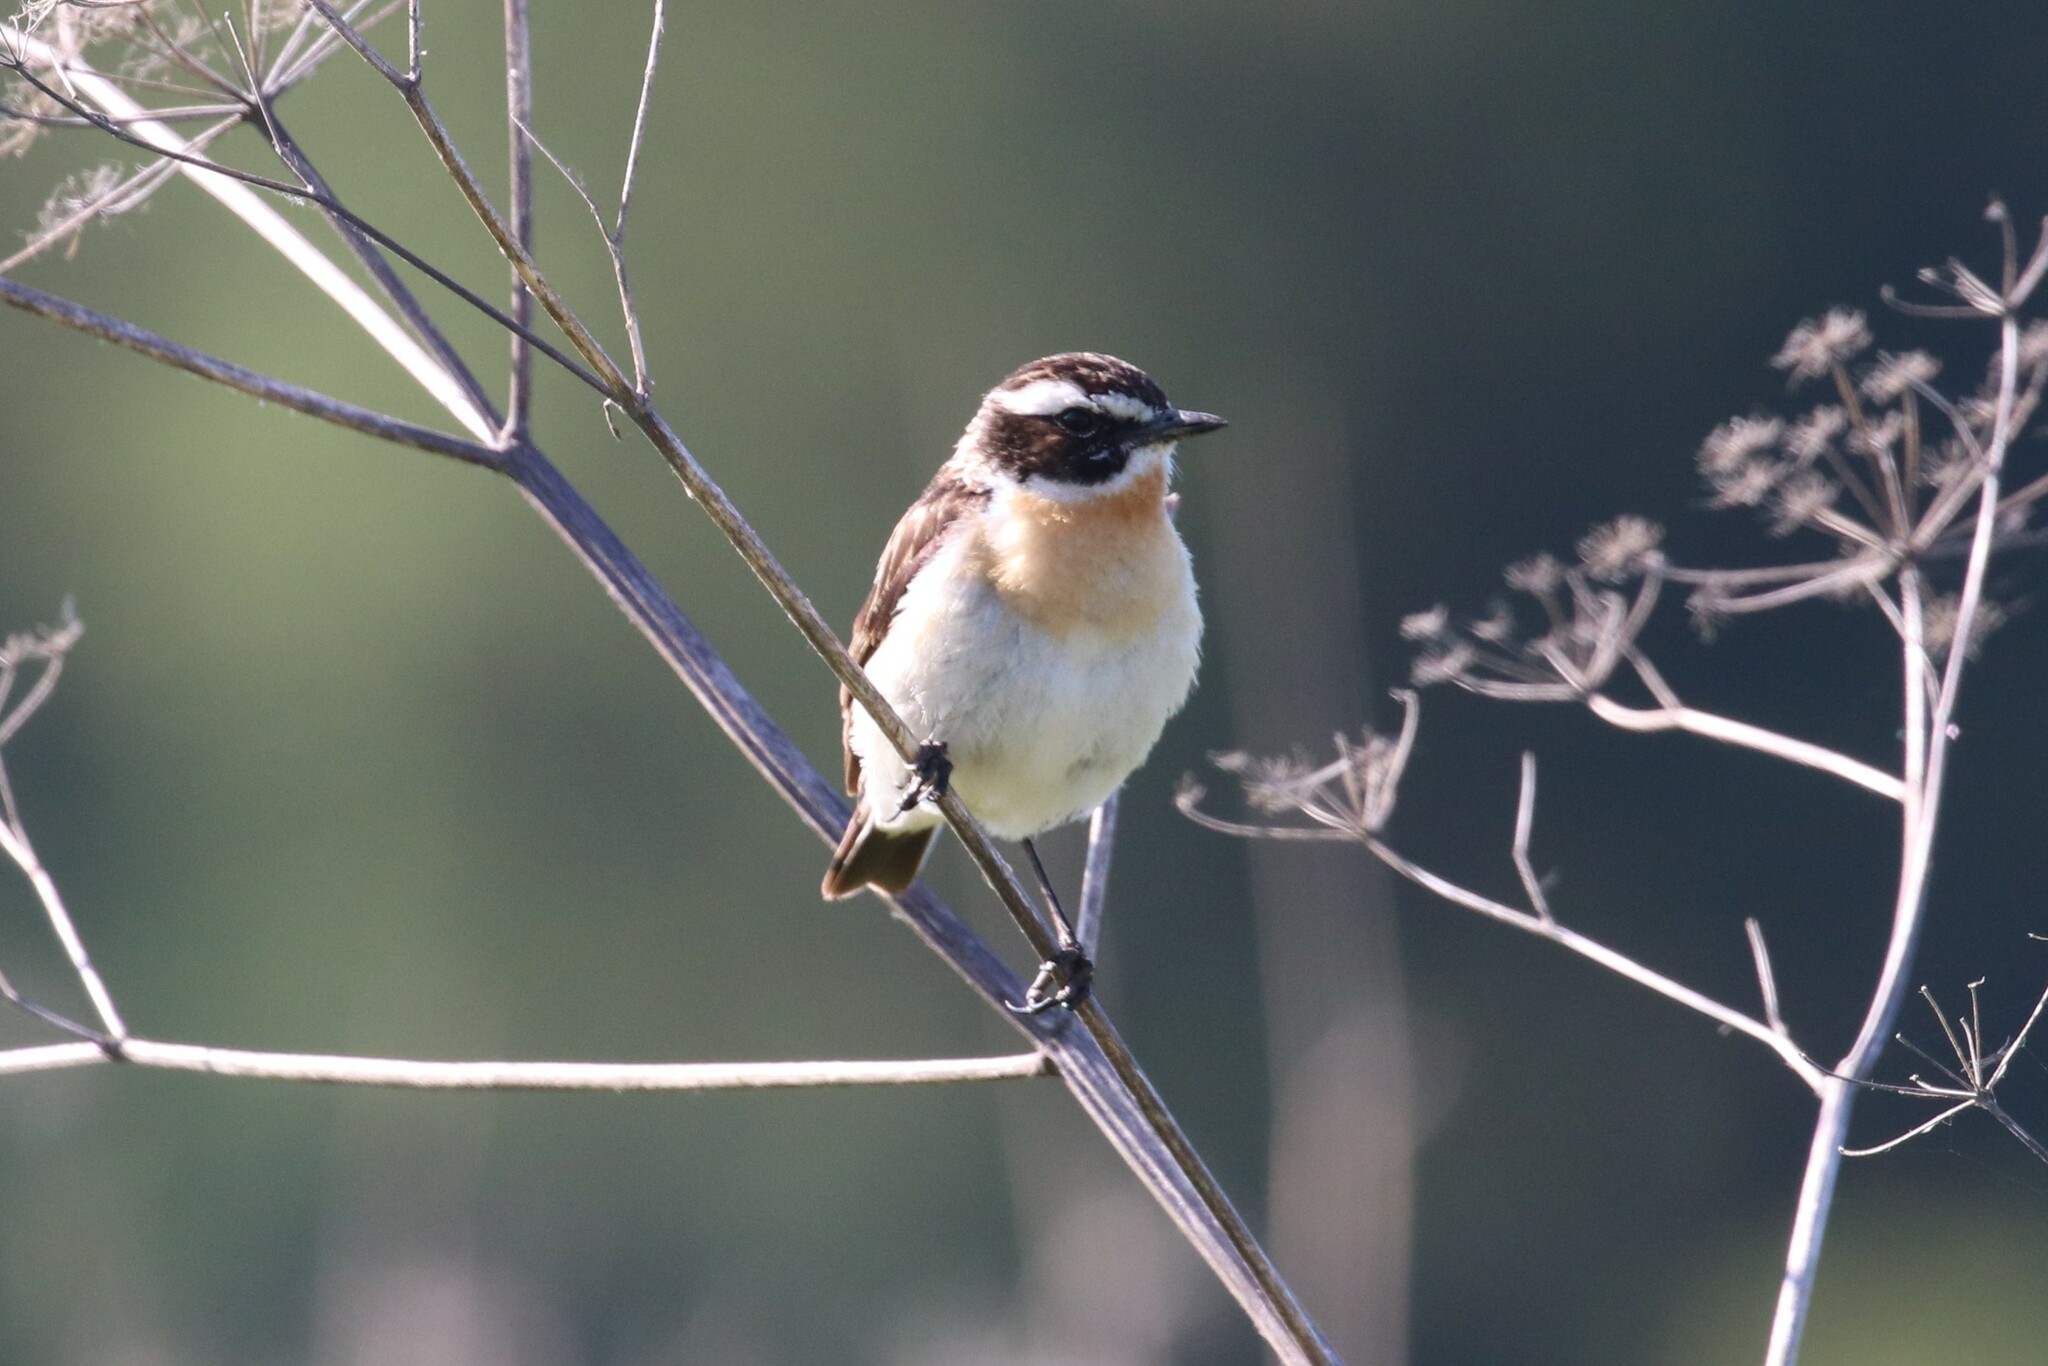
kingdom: Animalia
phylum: Chordata
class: Aves
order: Passeriformes
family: Muscicapidae
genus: Saxicola
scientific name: Saxicola rubetra
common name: Whinchat
